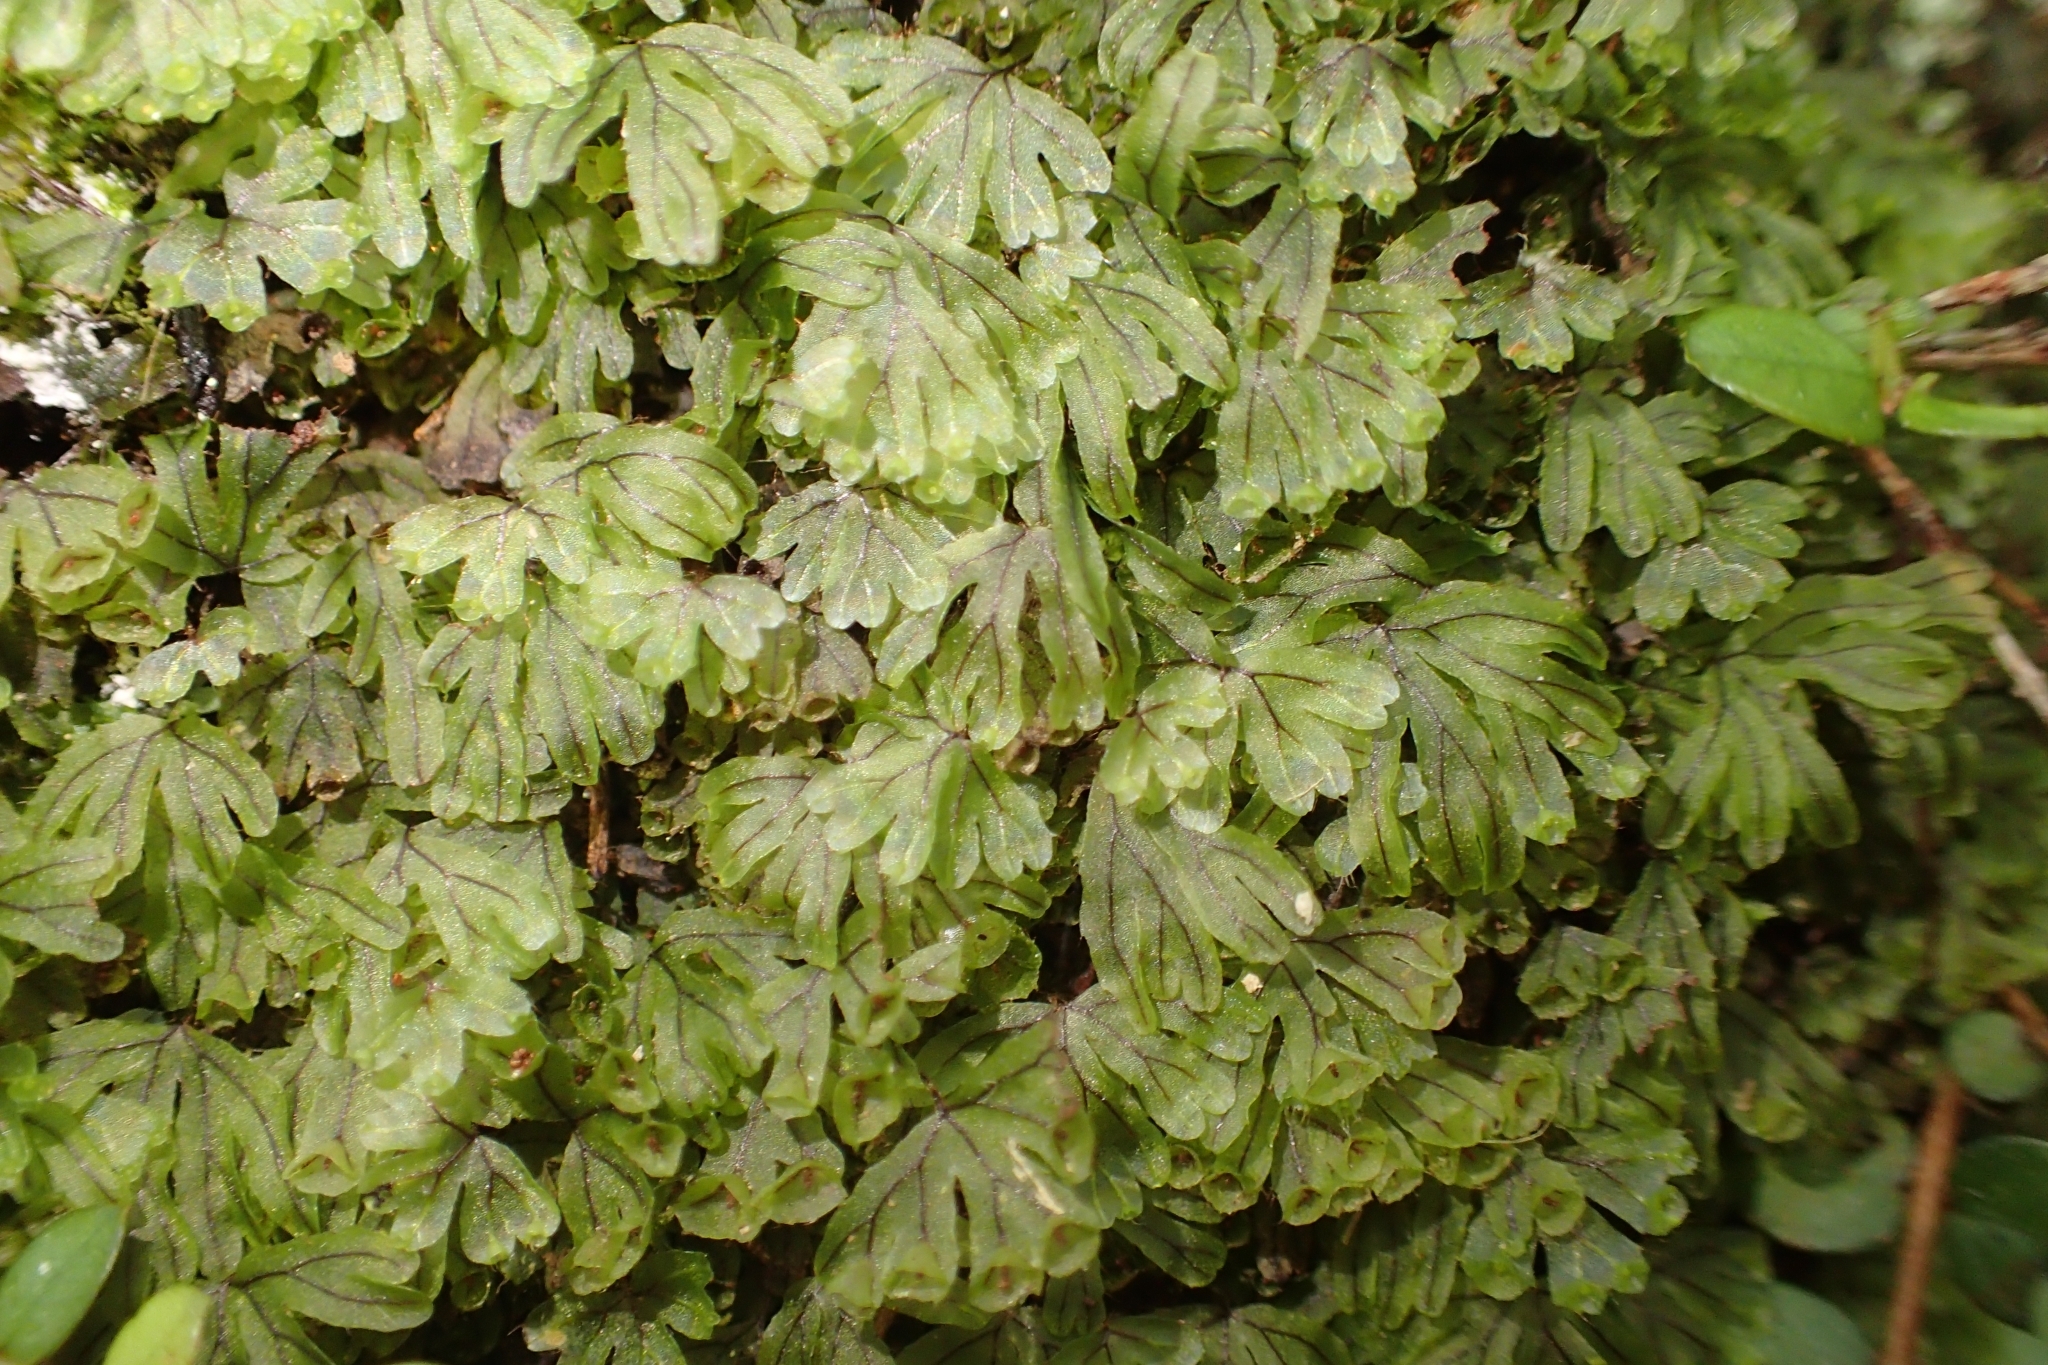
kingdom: Plantae
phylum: Tracheophyta
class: Polypodiopsida
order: Hymenophyllales
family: Hymenophyllaceae
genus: Hymenophyllum
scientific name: Hymenophyllum lyallii
